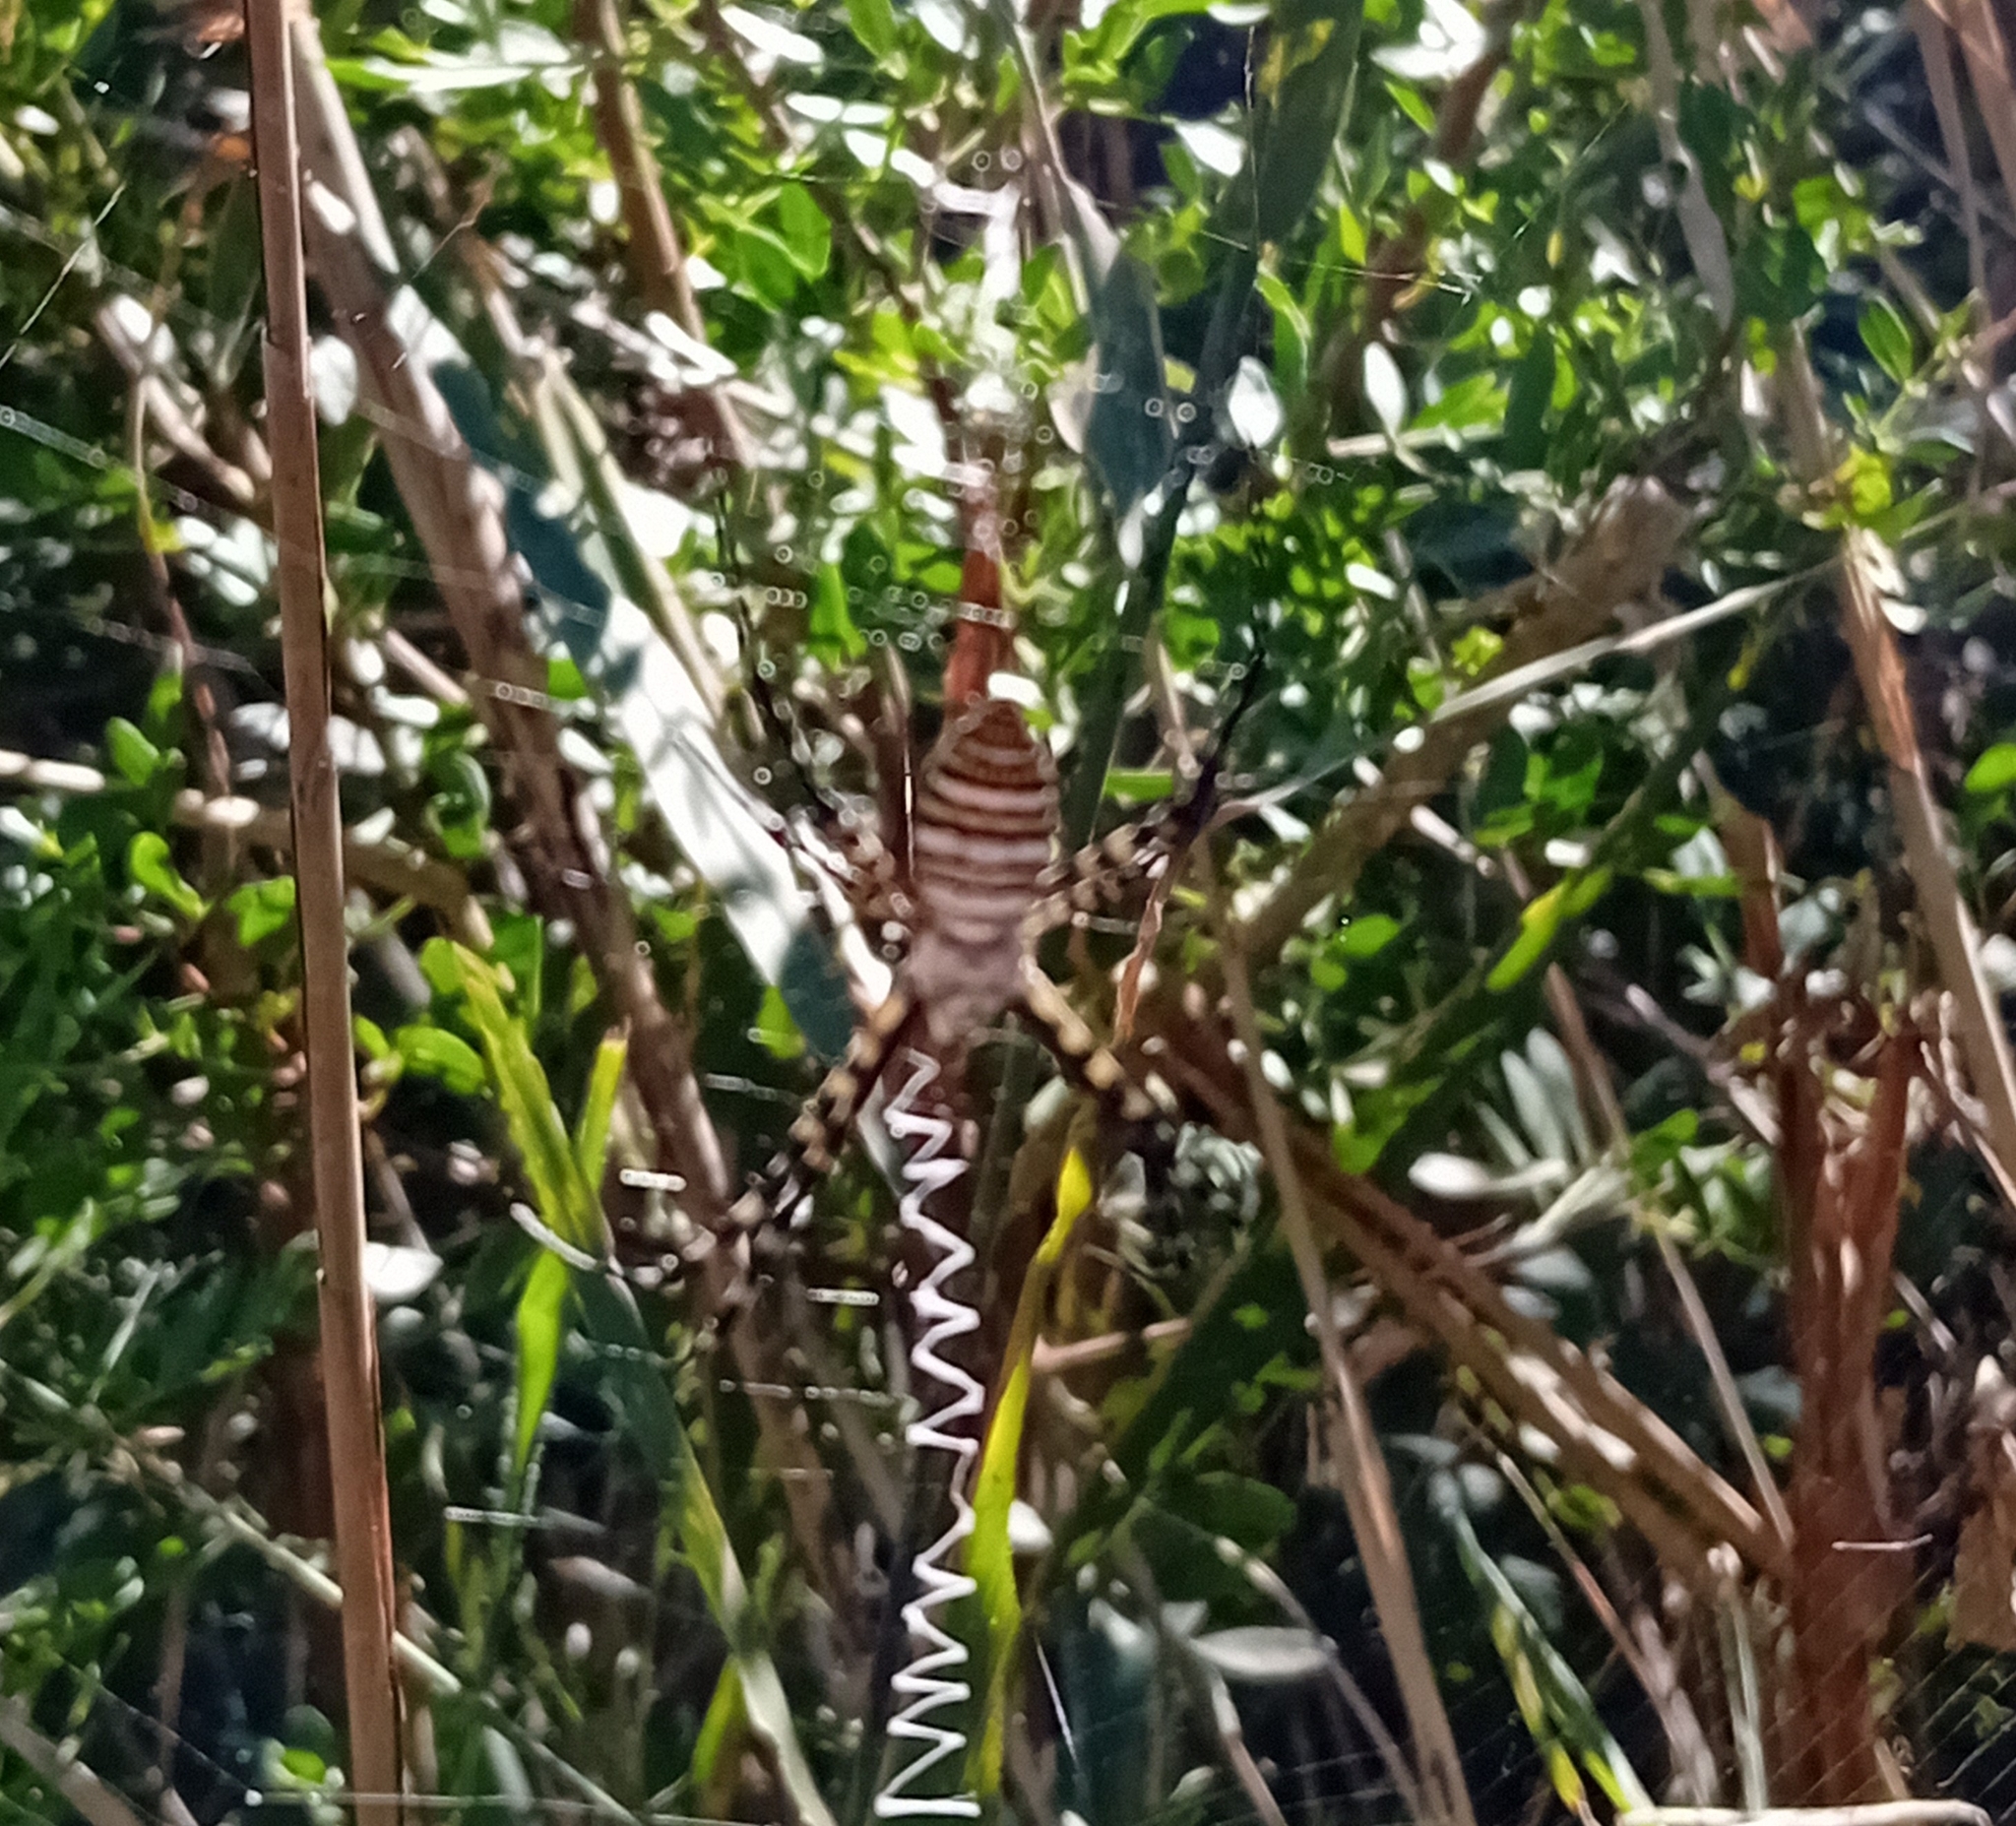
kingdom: Animalia
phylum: Arthropoda
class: Arachnida
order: Araneae
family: Araneidae
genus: Argiope
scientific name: Argiope trifasciata
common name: Banded garden spider
